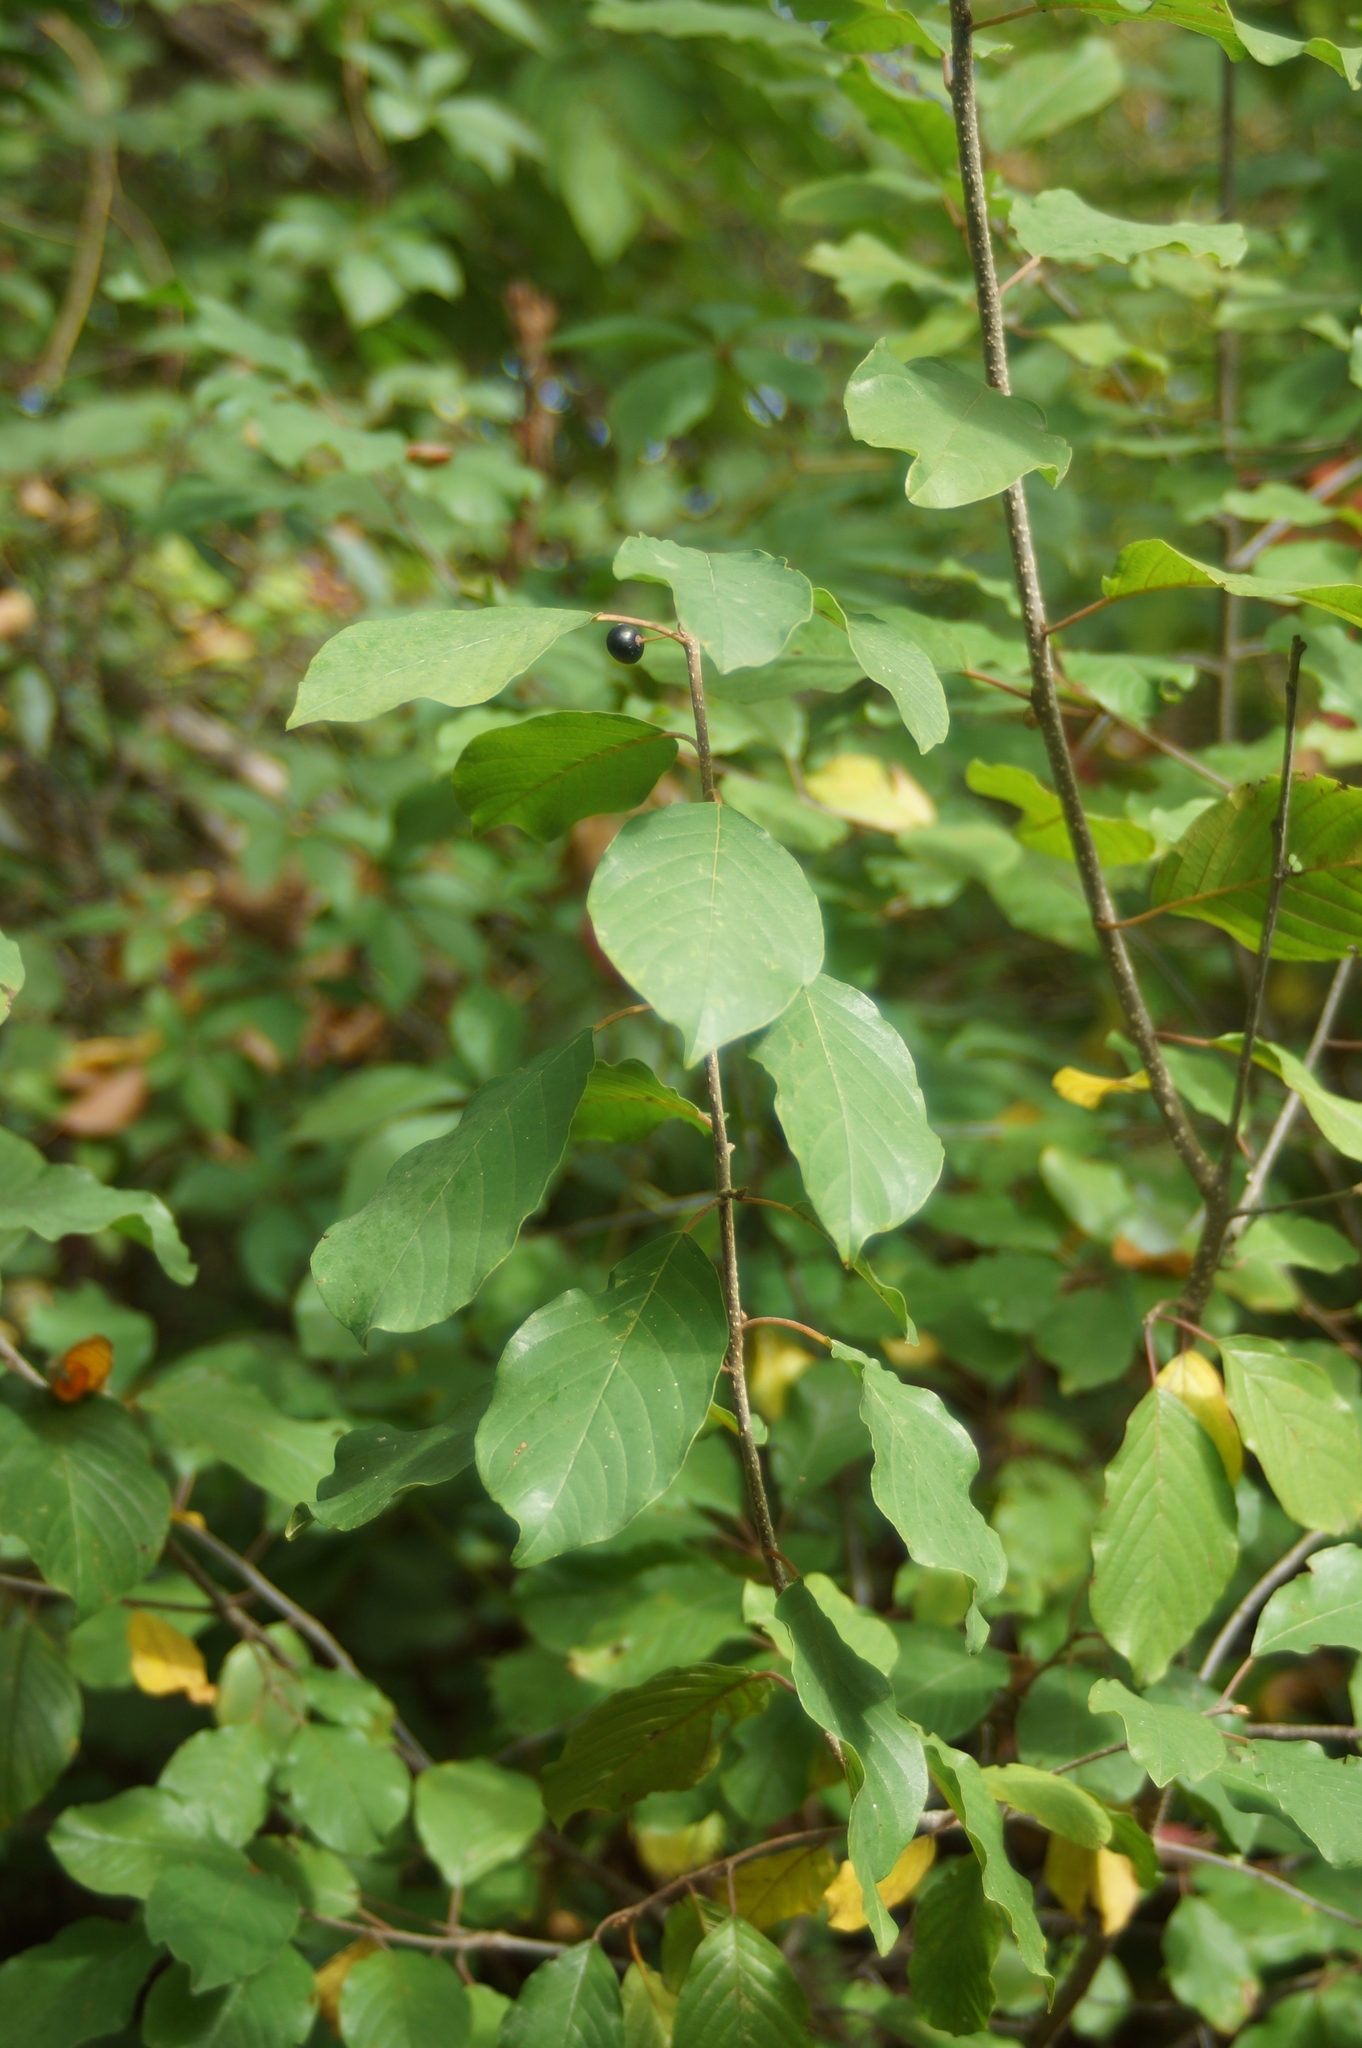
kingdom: Plantae
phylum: Tracheophyta
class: Magnoliopsida
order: Rosales
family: Rhamnaceae
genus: Frangula
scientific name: Frangula alnus
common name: Alder buckthorn
